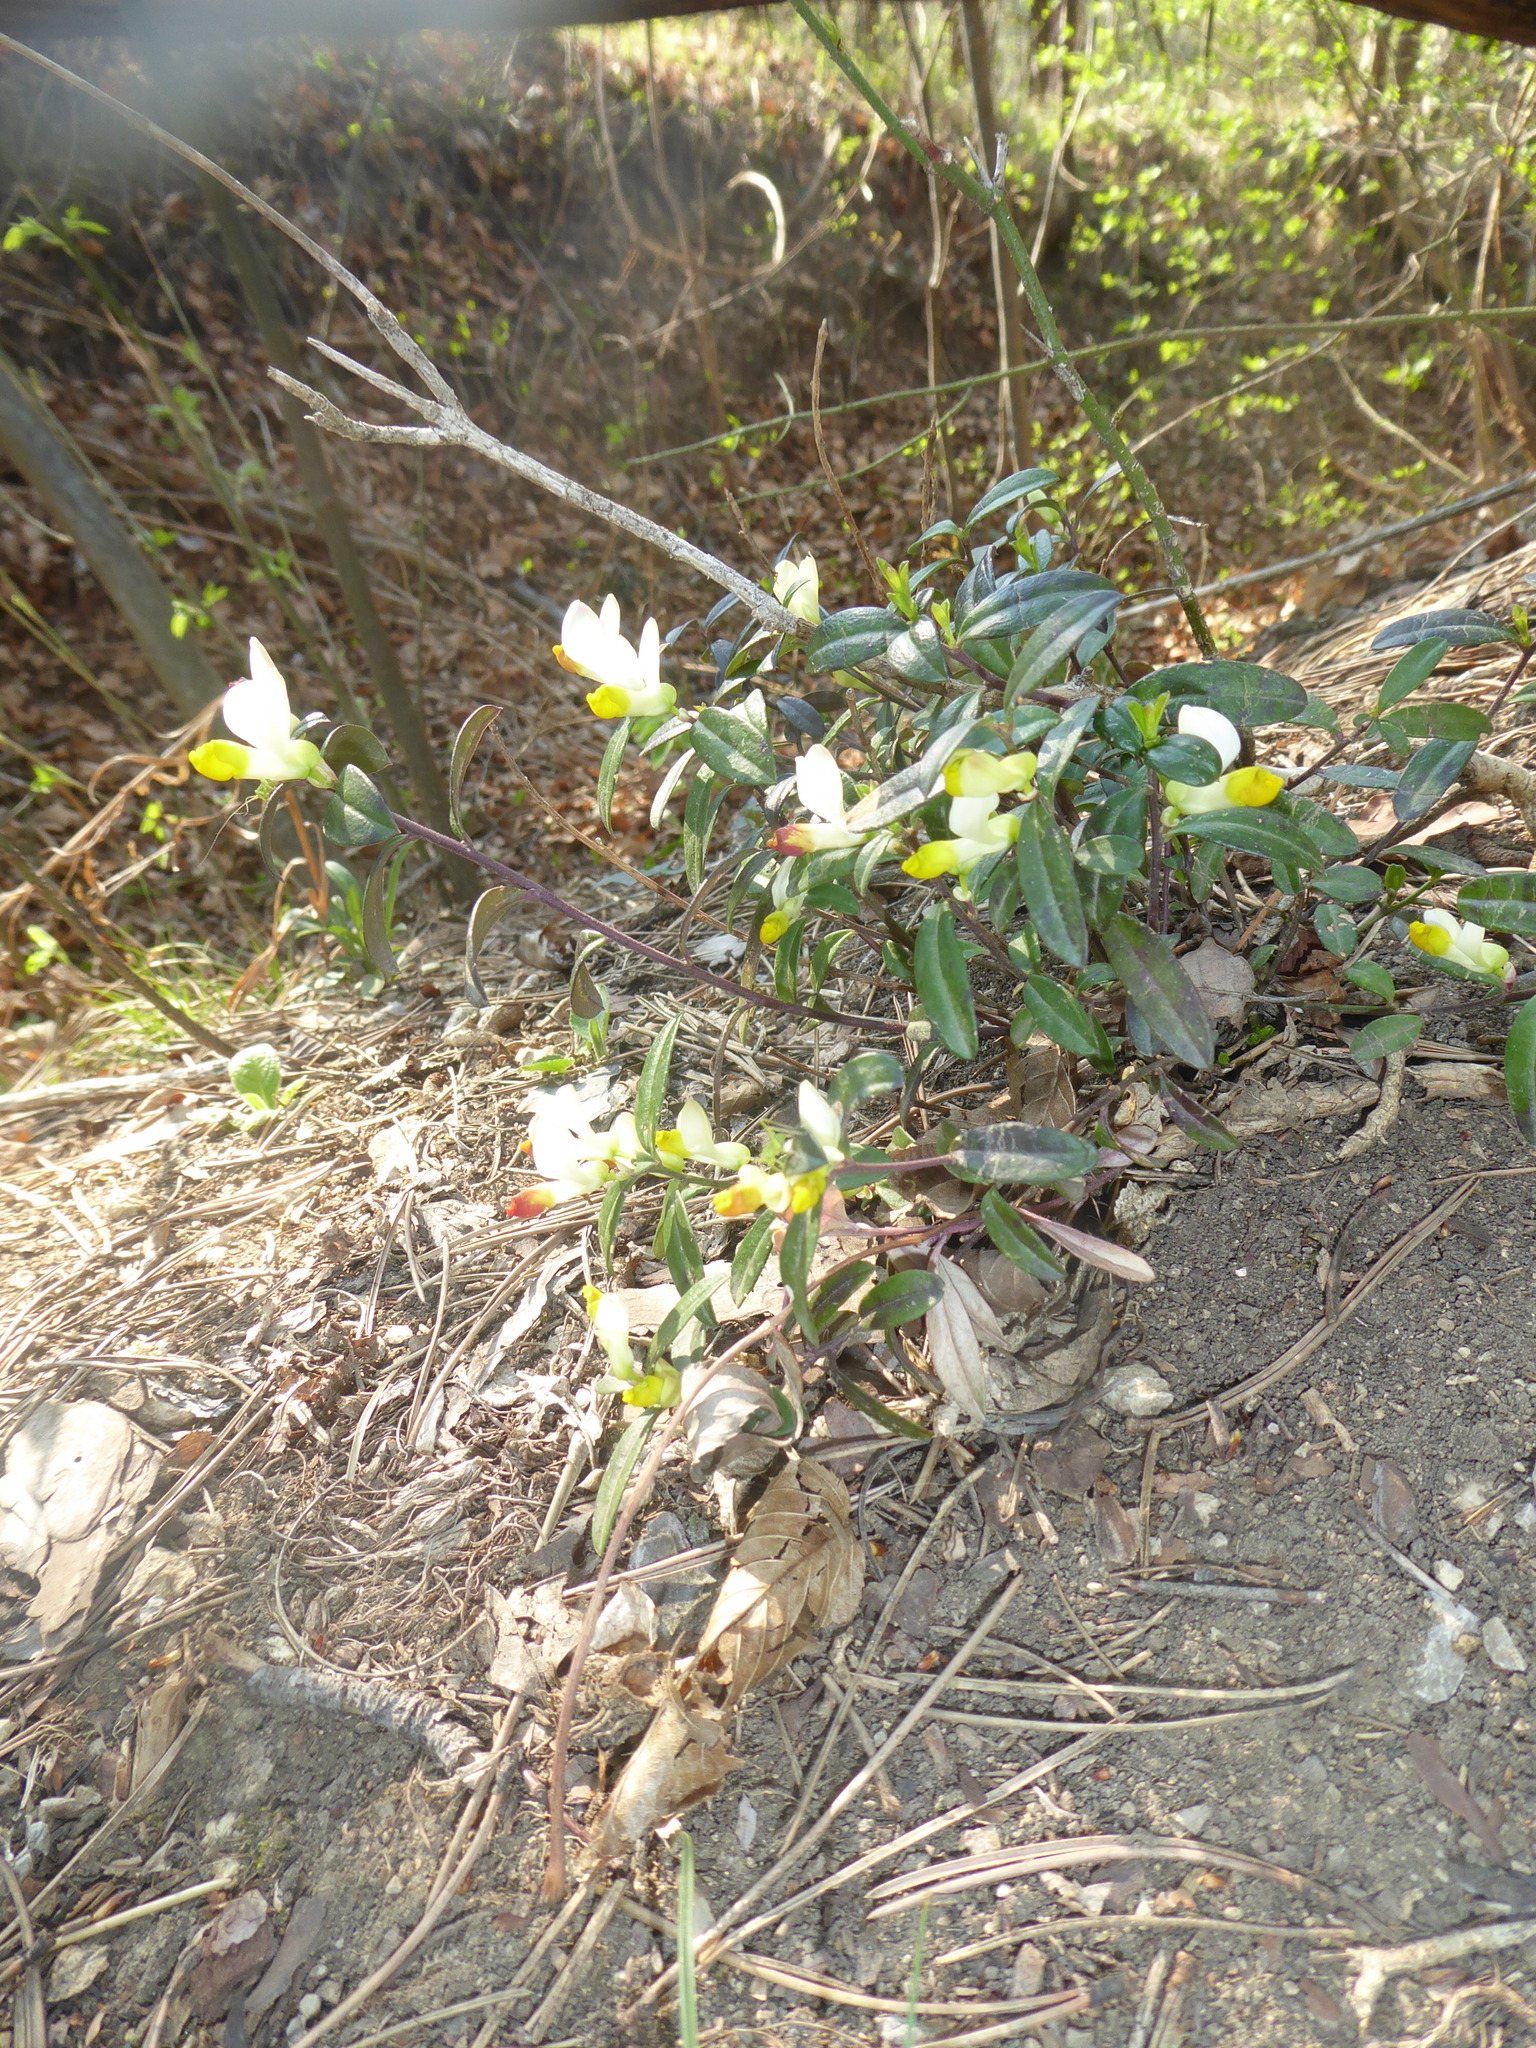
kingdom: Plantae
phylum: Tracheophyta
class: Magnoliopsida
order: Fabales
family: Polygalaceae
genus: Polygaloides
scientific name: Polygaloides chamaebuxus
